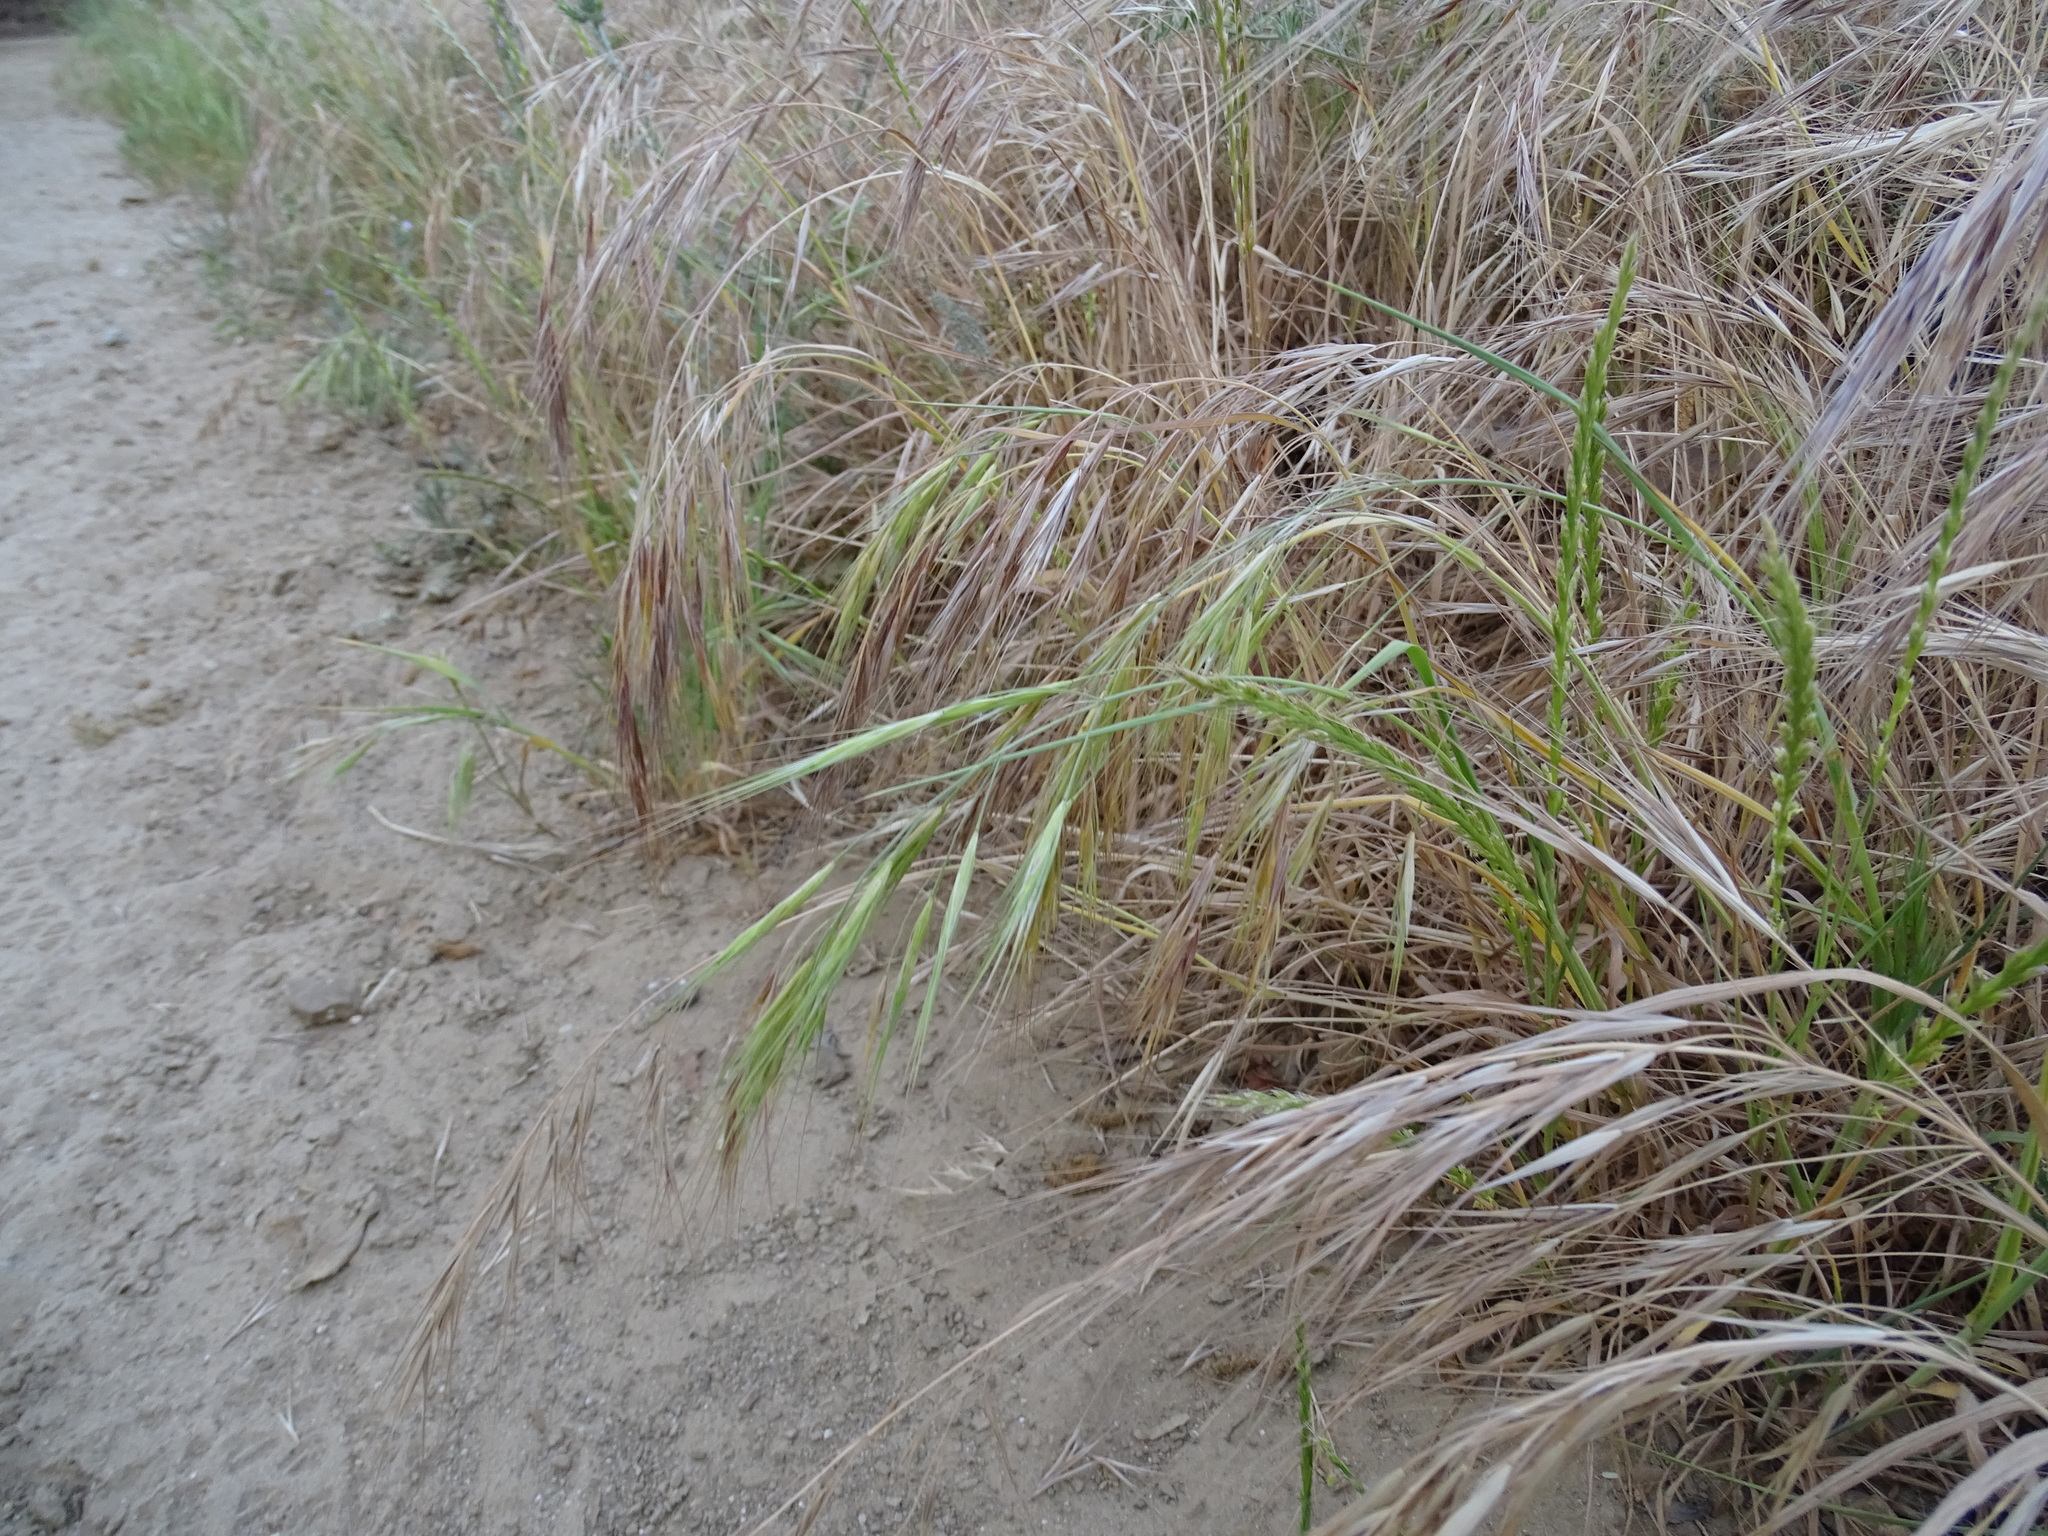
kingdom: Plantae
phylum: Tracheophyta
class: Liliopsida
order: Poales
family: Poaceae
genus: Bromus
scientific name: Bromus diandrus
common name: Ripgut brome
